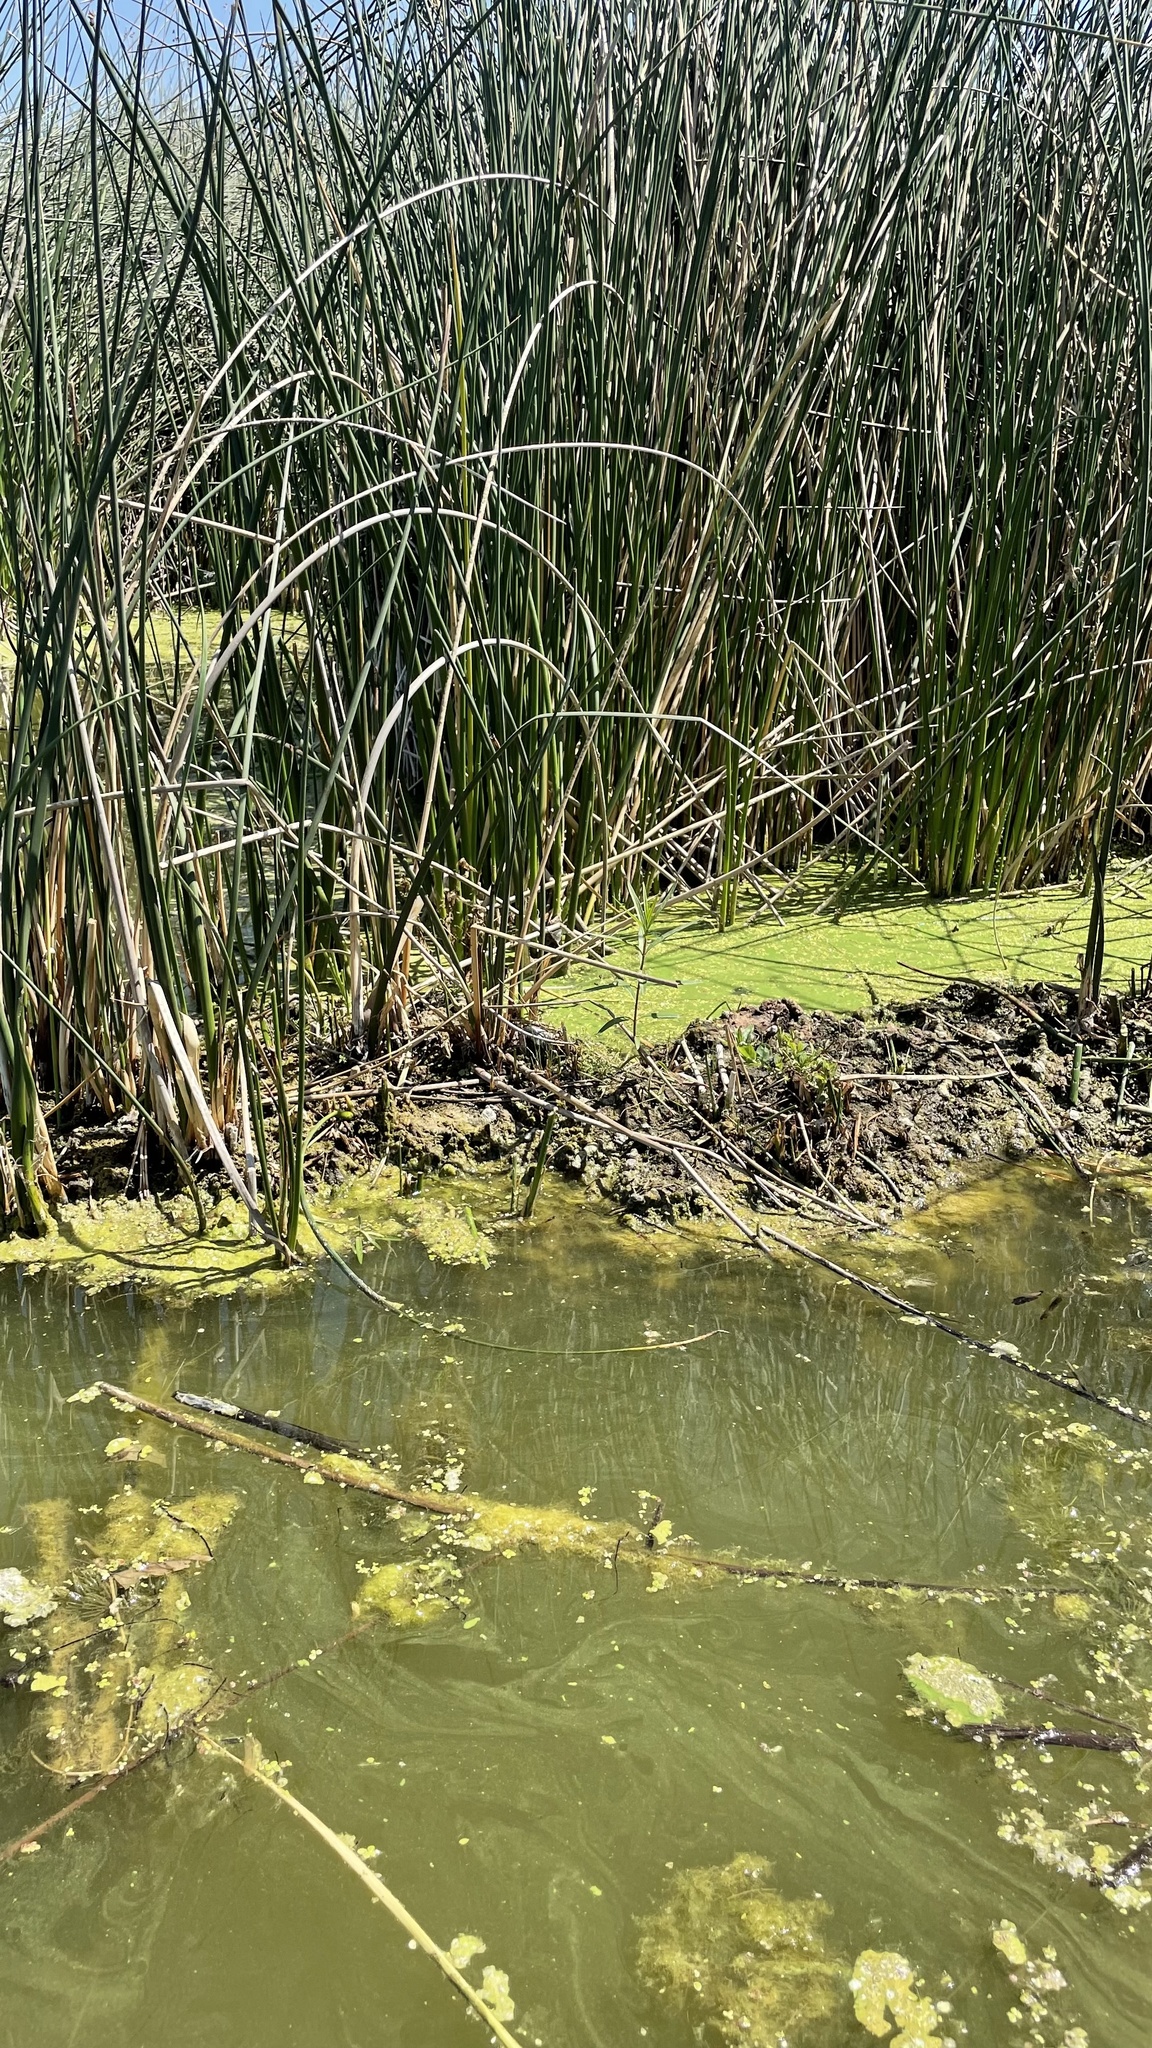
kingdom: Plantae
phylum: Tracheophyta
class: Magnoliopsida
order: Gentianales
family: Apocynaceae
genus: Asclepias
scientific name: Asclepias incarnata
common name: Swamp milkweed
